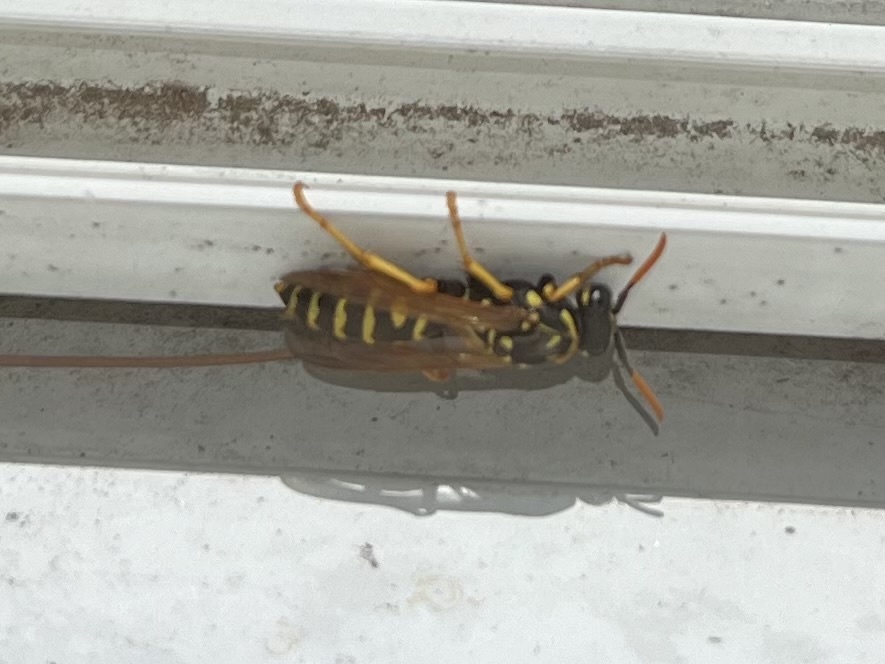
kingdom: Animalia
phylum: Arthropoda
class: Insecta
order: Hymenoptera
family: Eumenidae
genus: Polistes
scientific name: Polistes dominula
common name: Paper wasp
